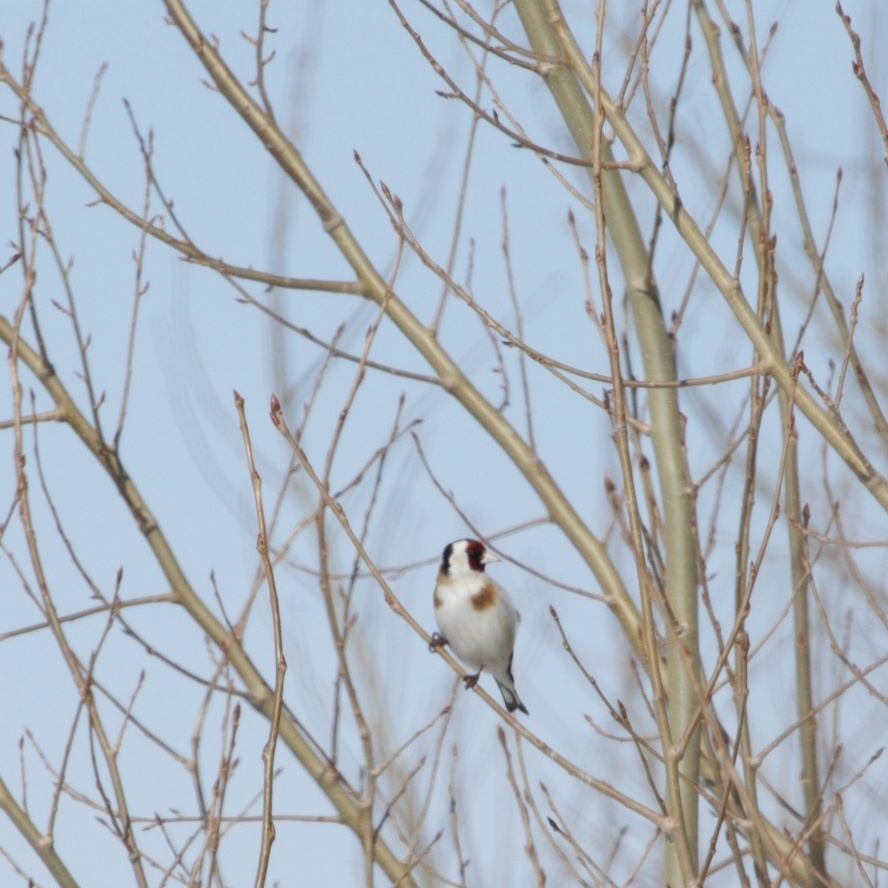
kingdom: Animalia
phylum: Chordata
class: Aves
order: Passeriformes
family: Fringillidae
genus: Carduelis
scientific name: Carduelis carduelis
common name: European goldfinch
